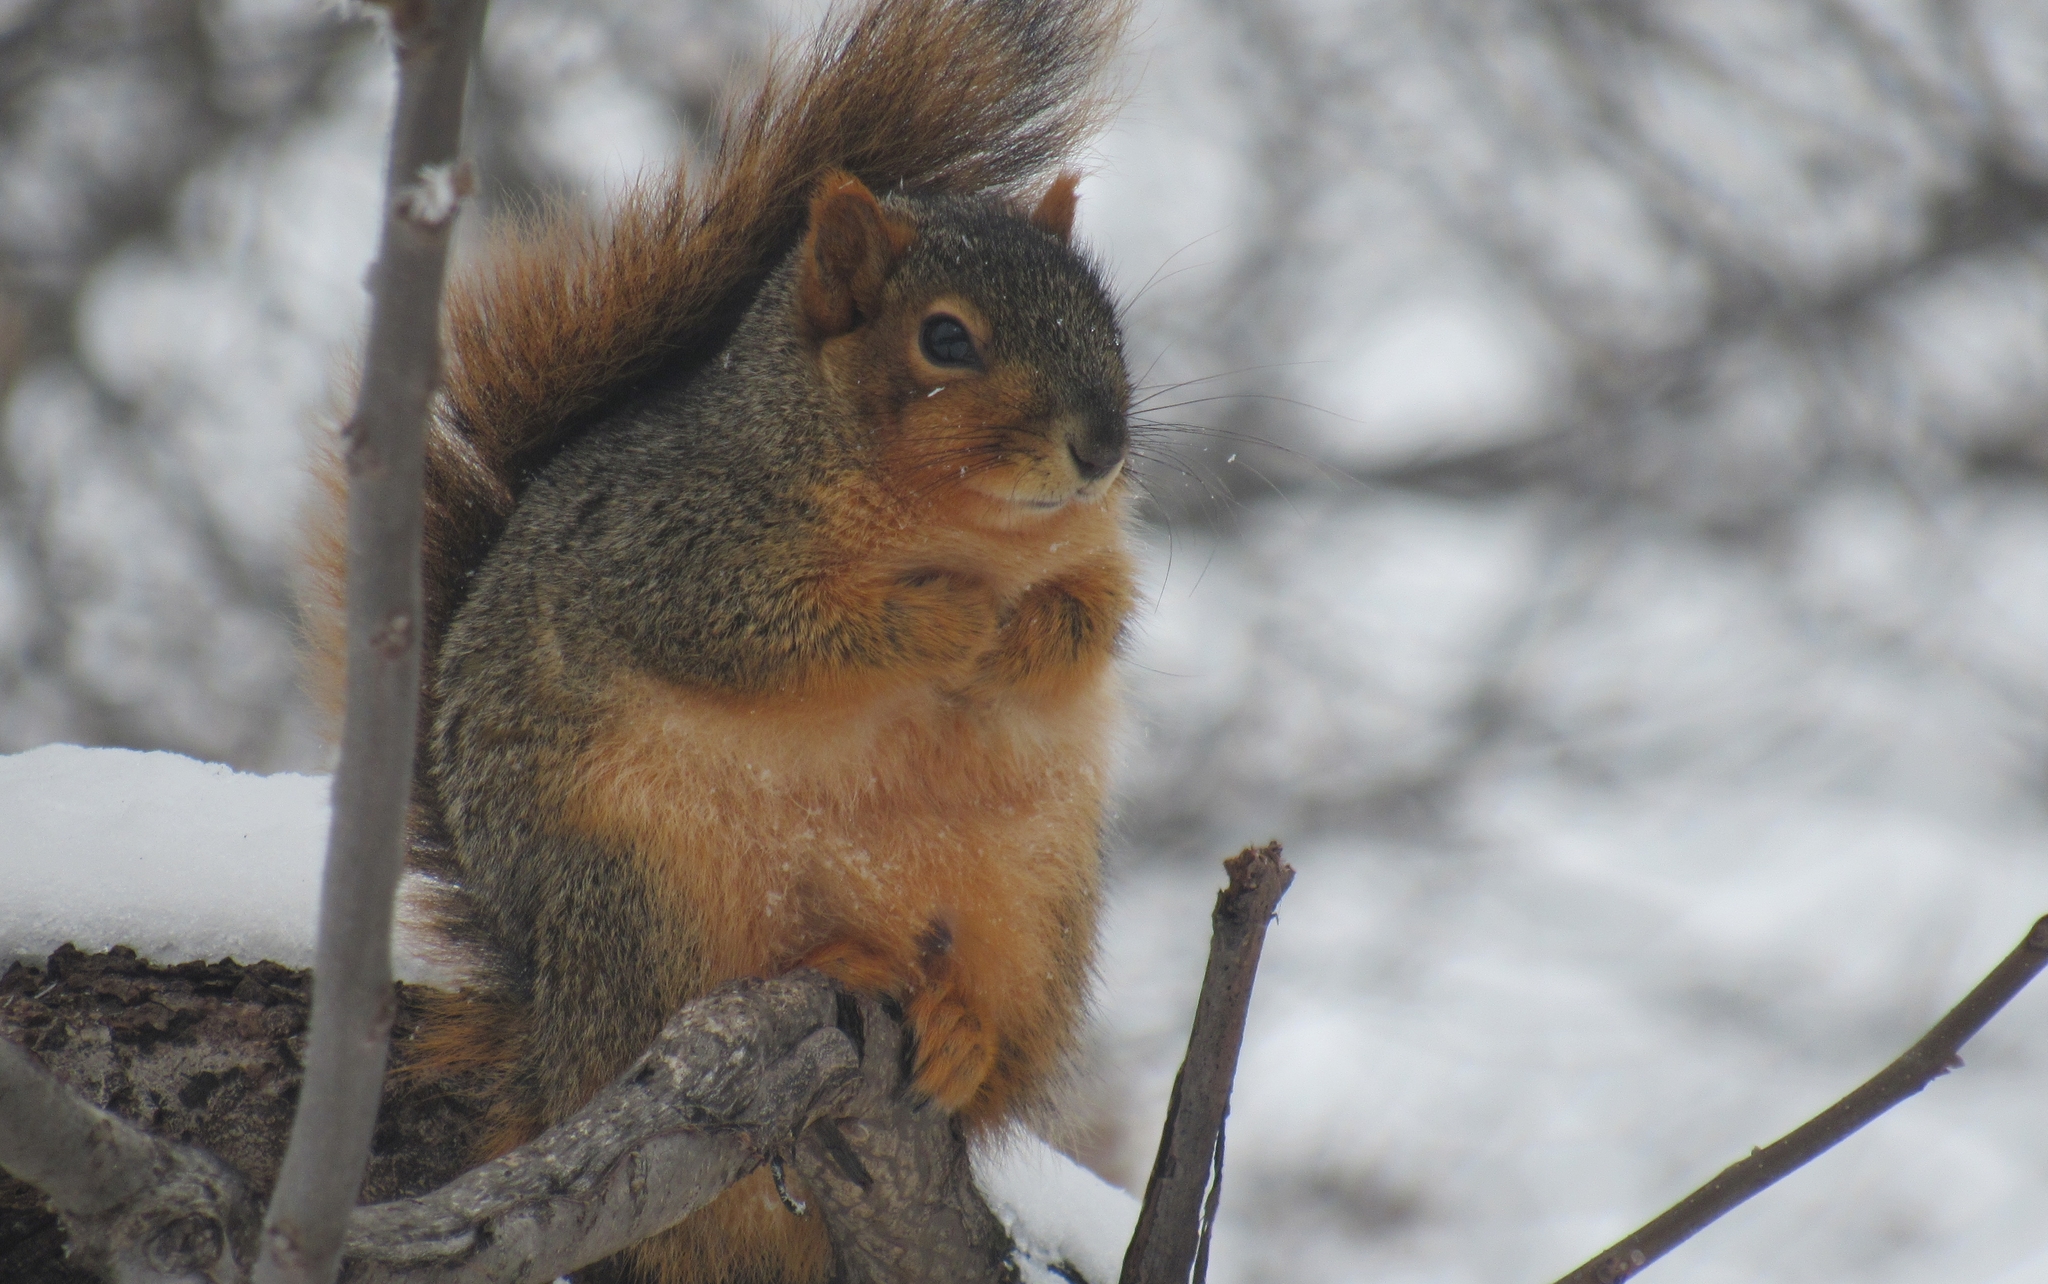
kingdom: Animalia
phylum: Chordata
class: Mammalia
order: Rodentia
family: Sciuridae
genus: Sciurus
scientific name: Sciurus niger
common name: Fox squirrel
